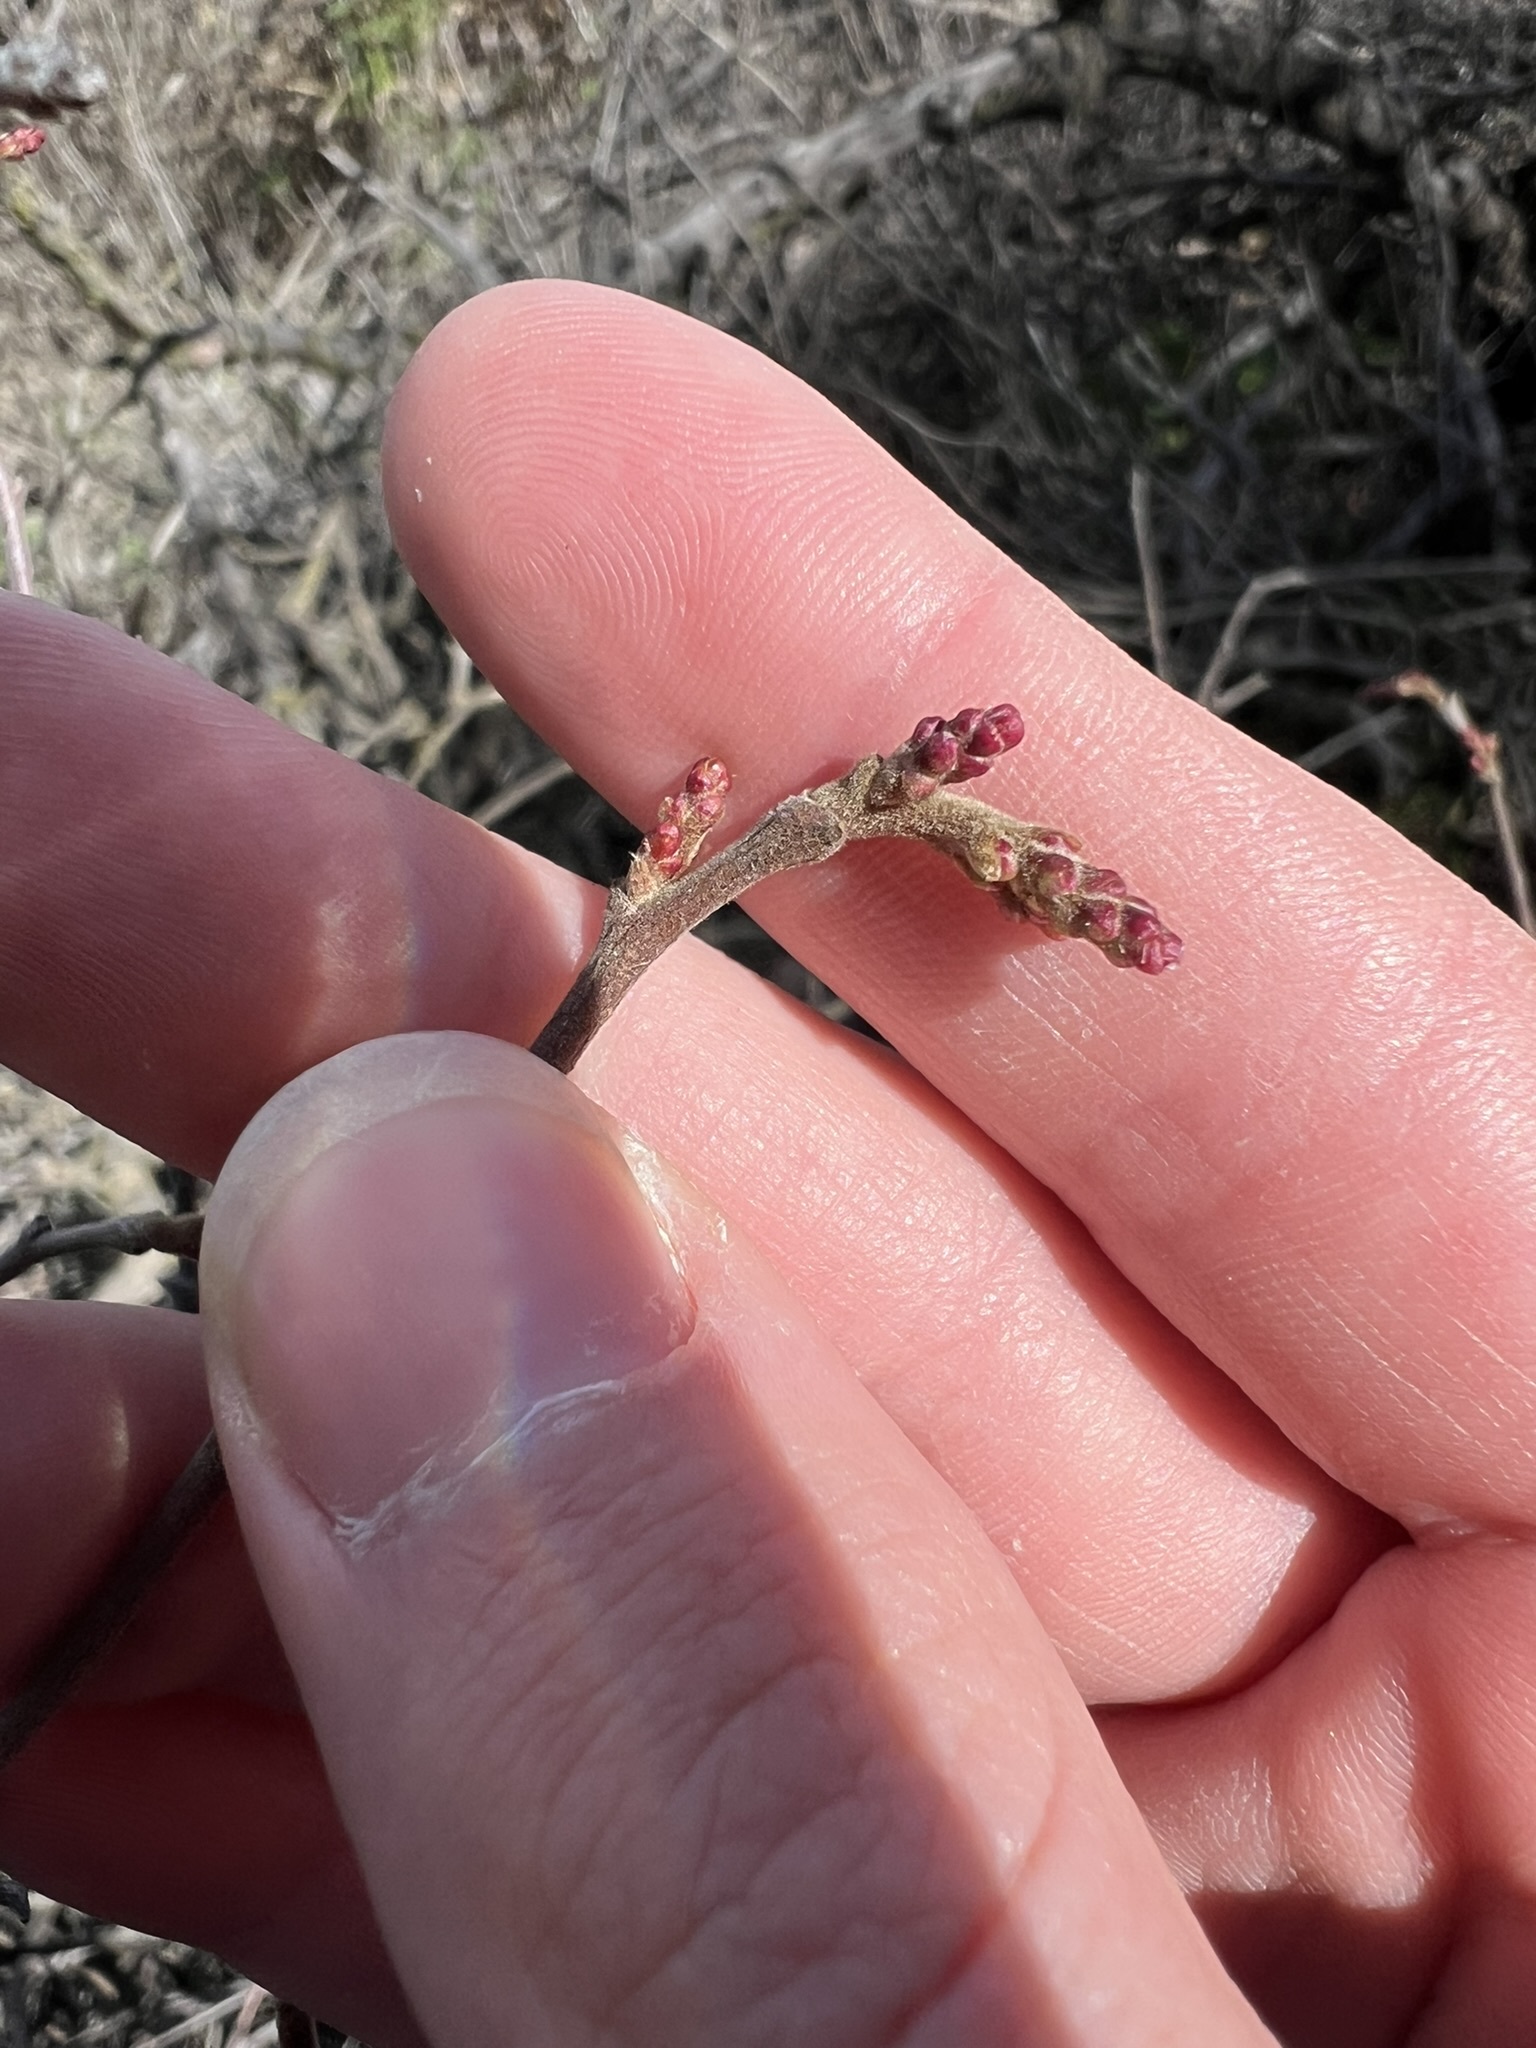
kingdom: Plantae
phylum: Tracheophyta
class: Magnoliopsida
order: Sapindales
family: Anacardiaceae
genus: Rhus
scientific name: Rhus aromatica
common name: Aromatic sumac
